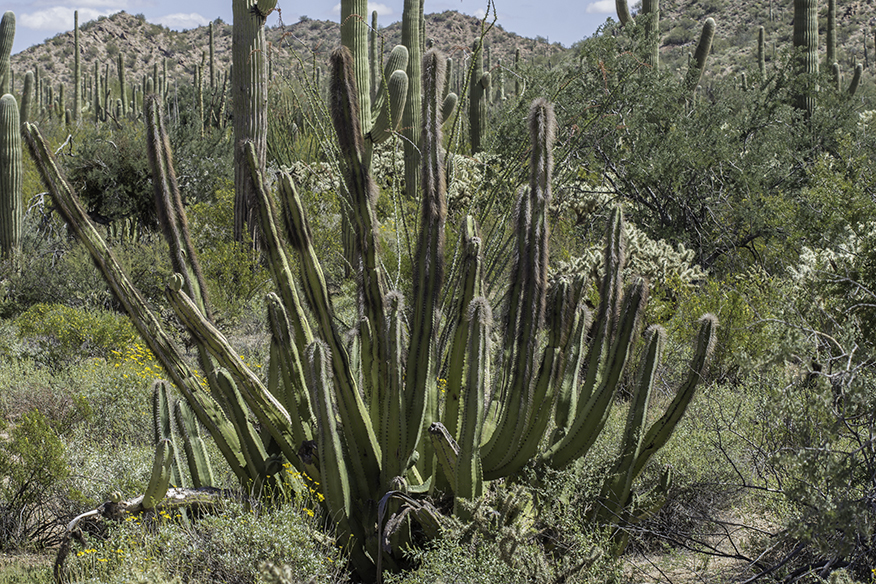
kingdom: Plantae
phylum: Tracheophyta
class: Magnoliopsida
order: Caryophyllales
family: Cactaceae
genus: Pachycereus
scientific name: Pachycereus schottii
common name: Senita cactus
